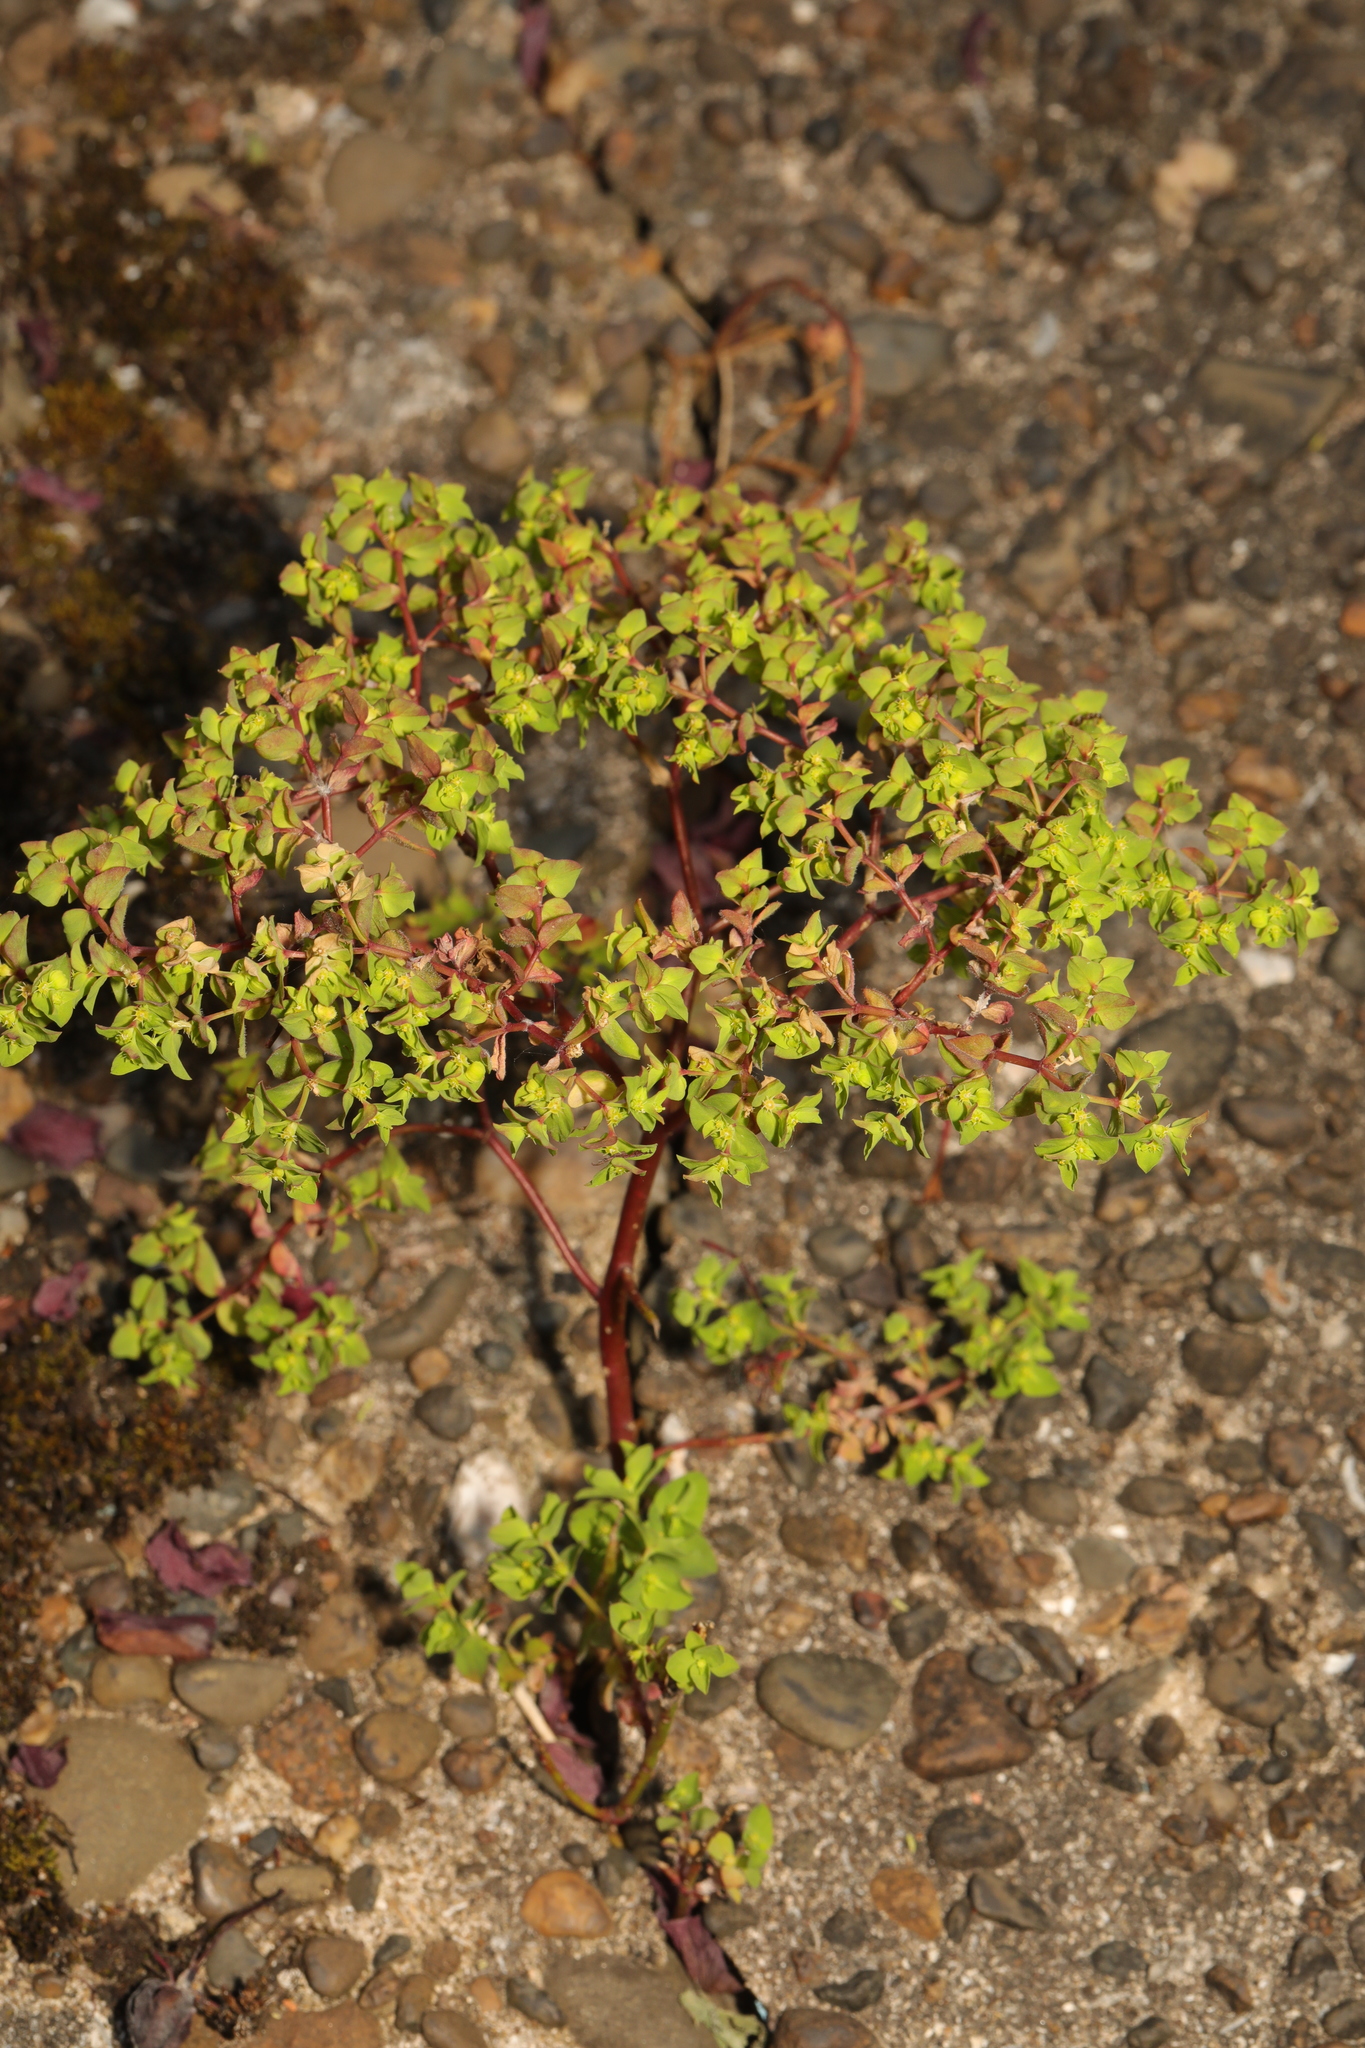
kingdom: Plantae
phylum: Tracheophyta
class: Magnoliopsida
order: Malpighiales
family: Euphorbiaceae
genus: Euphorbia
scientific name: Euphorbia peplus
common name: Petty spurge
